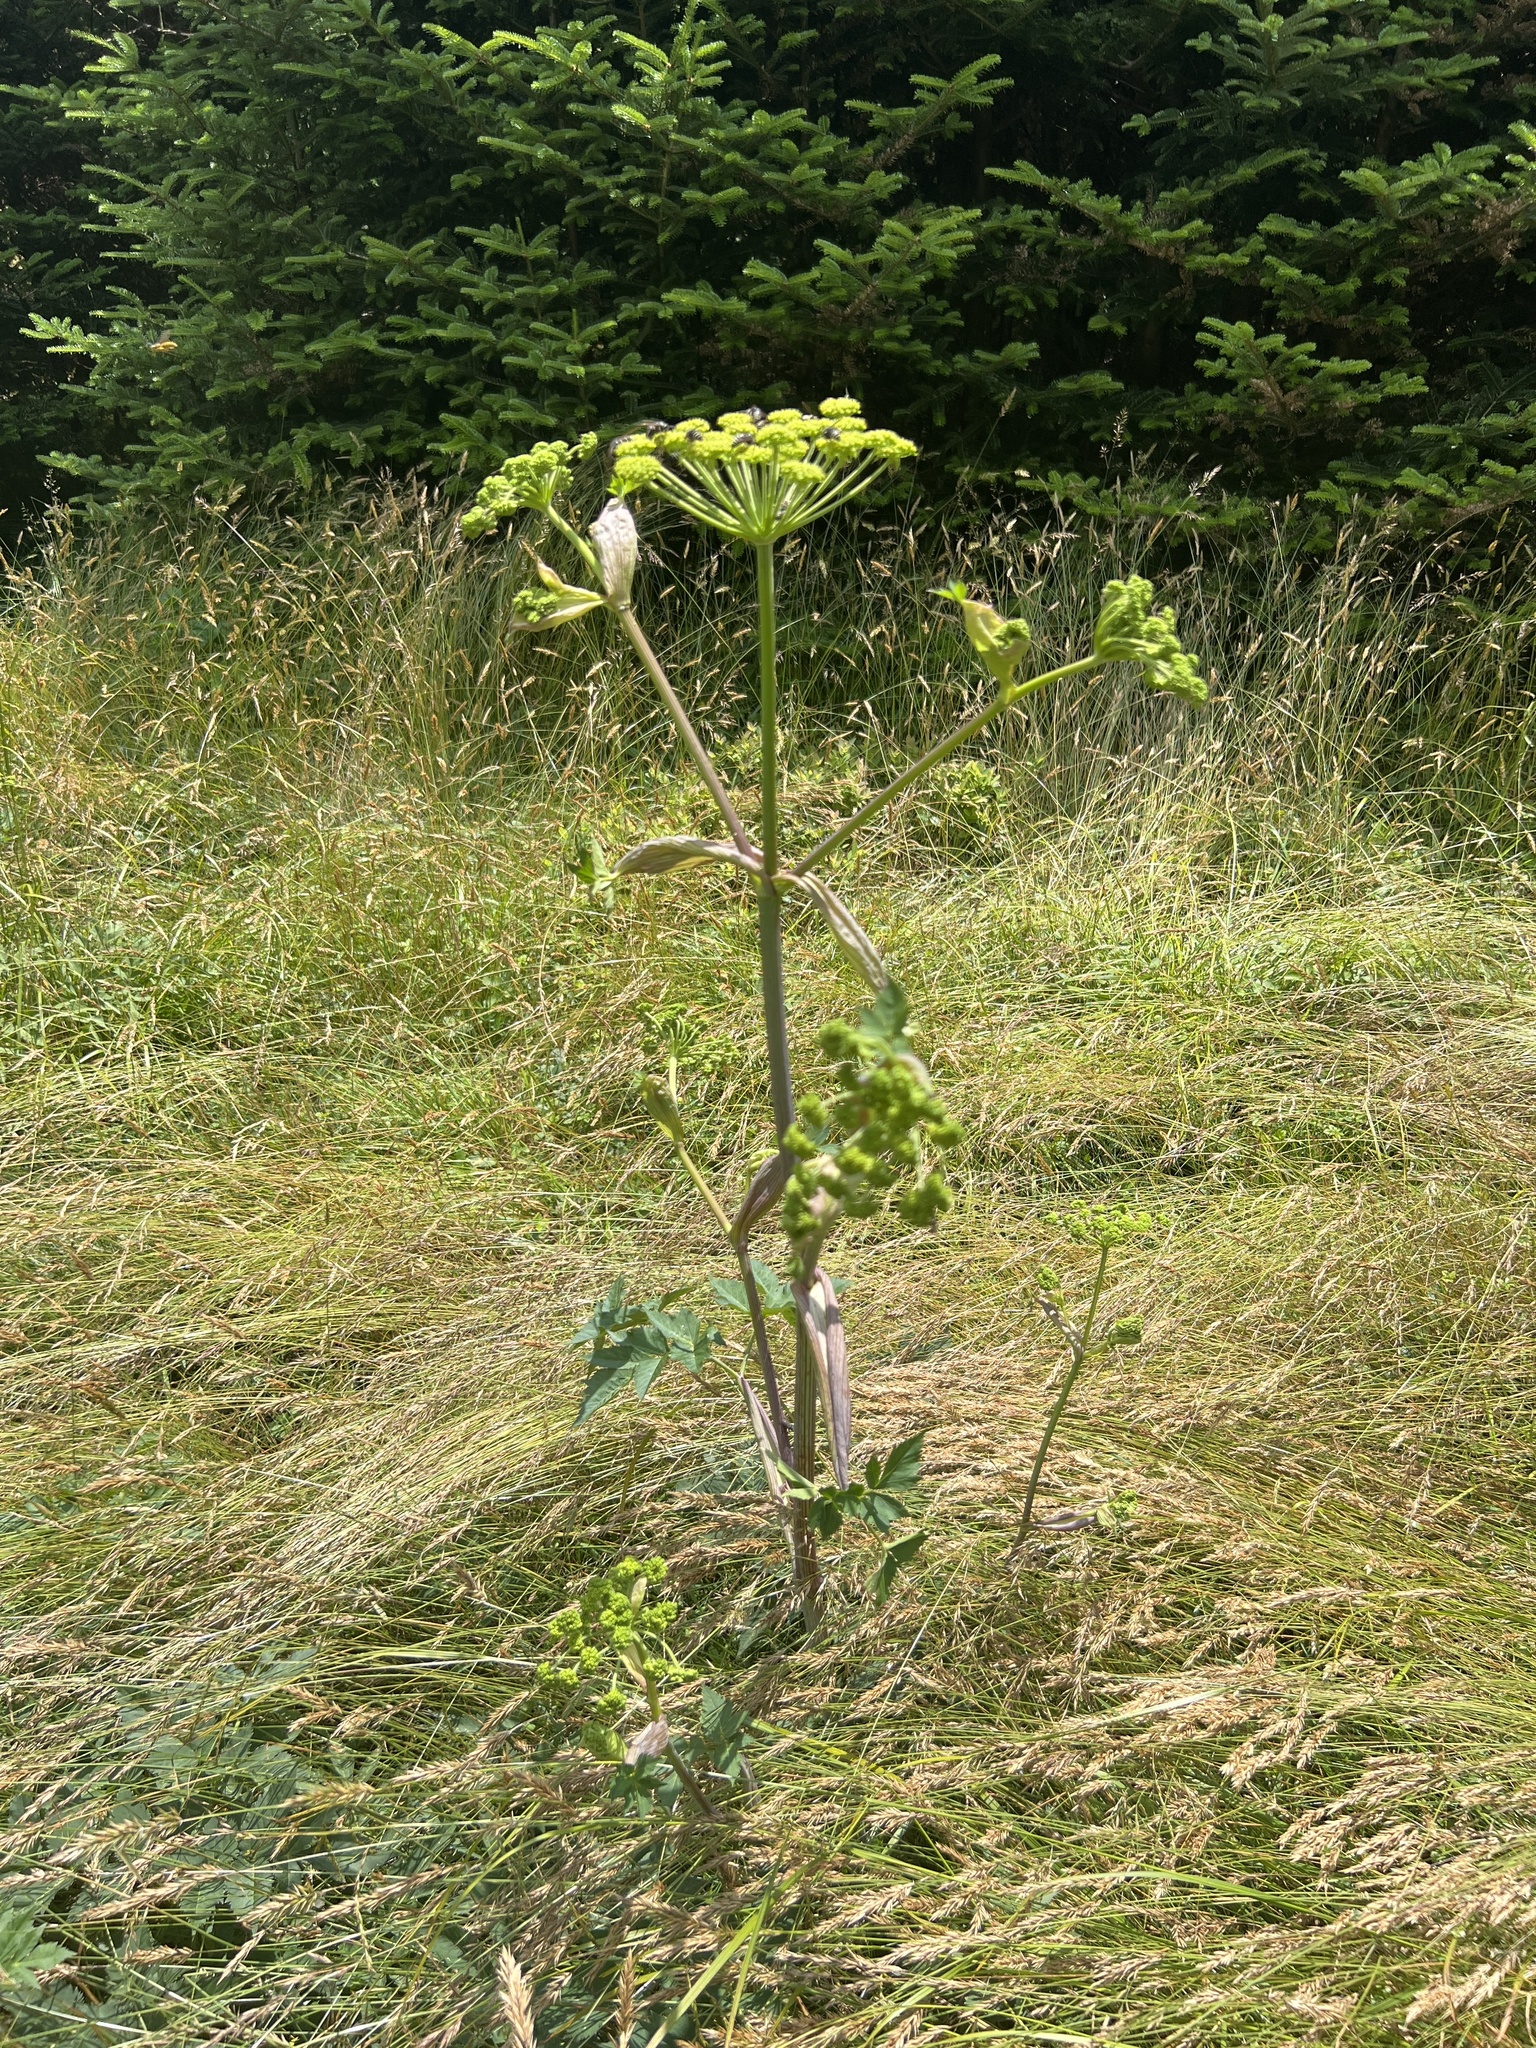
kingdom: Plantae
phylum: Tracheophyta
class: Magnoliopsida
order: Apiales
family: Apiaceae
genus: Angelica
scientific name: Angelica triquinata
